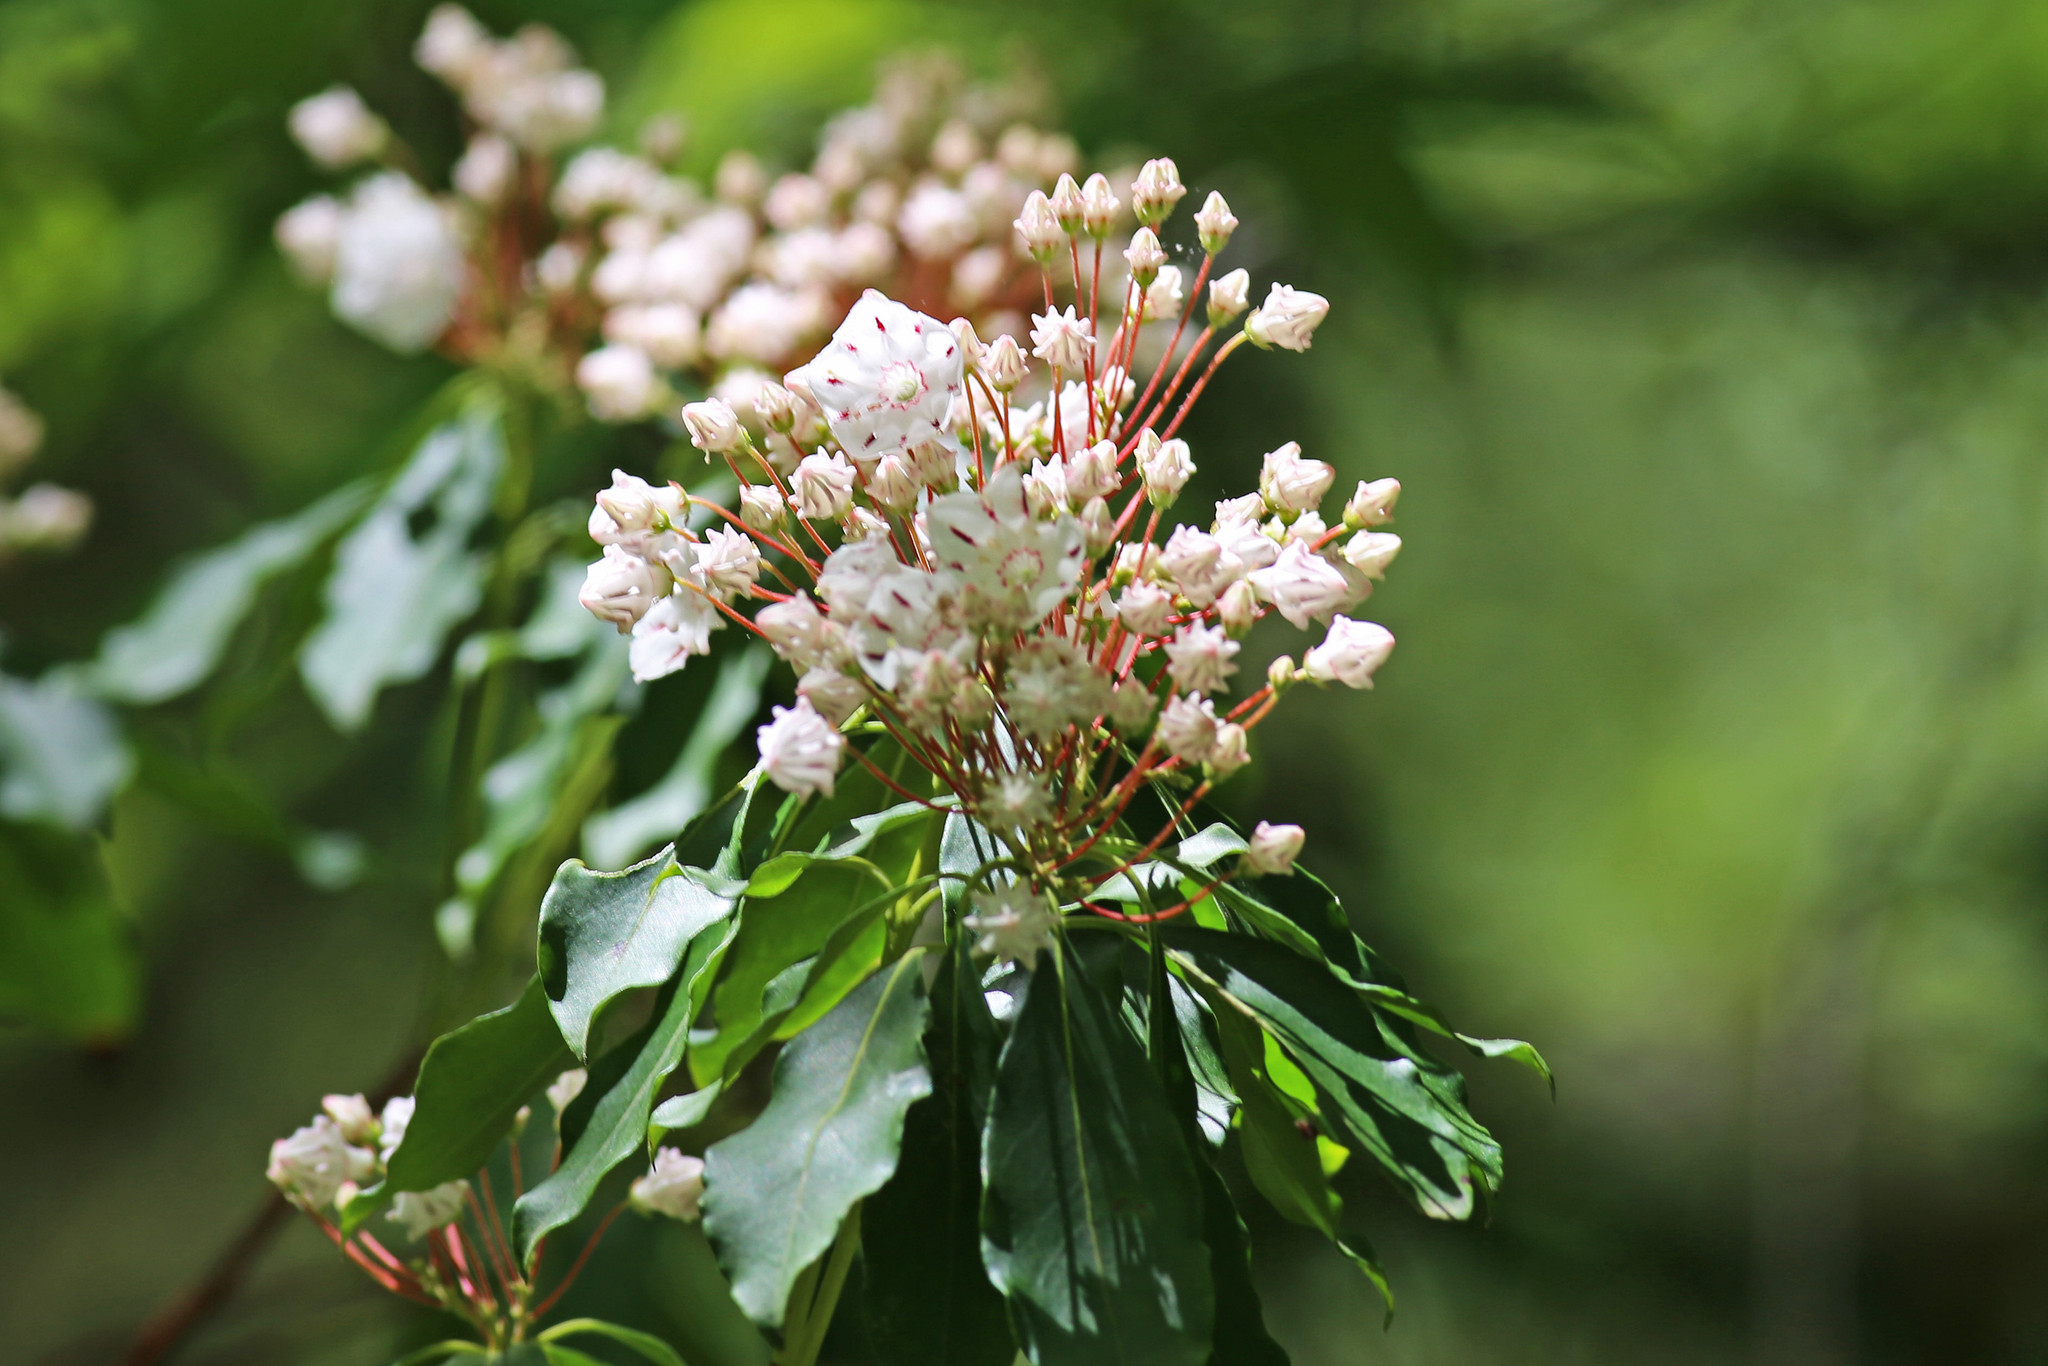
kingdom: Plantae
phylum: Tracheophyta
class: Magnoliopsida
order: Ericales
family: Ericaceae
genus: Kalmia
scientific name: Kalmia latifolia
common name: Mountain-laurel
